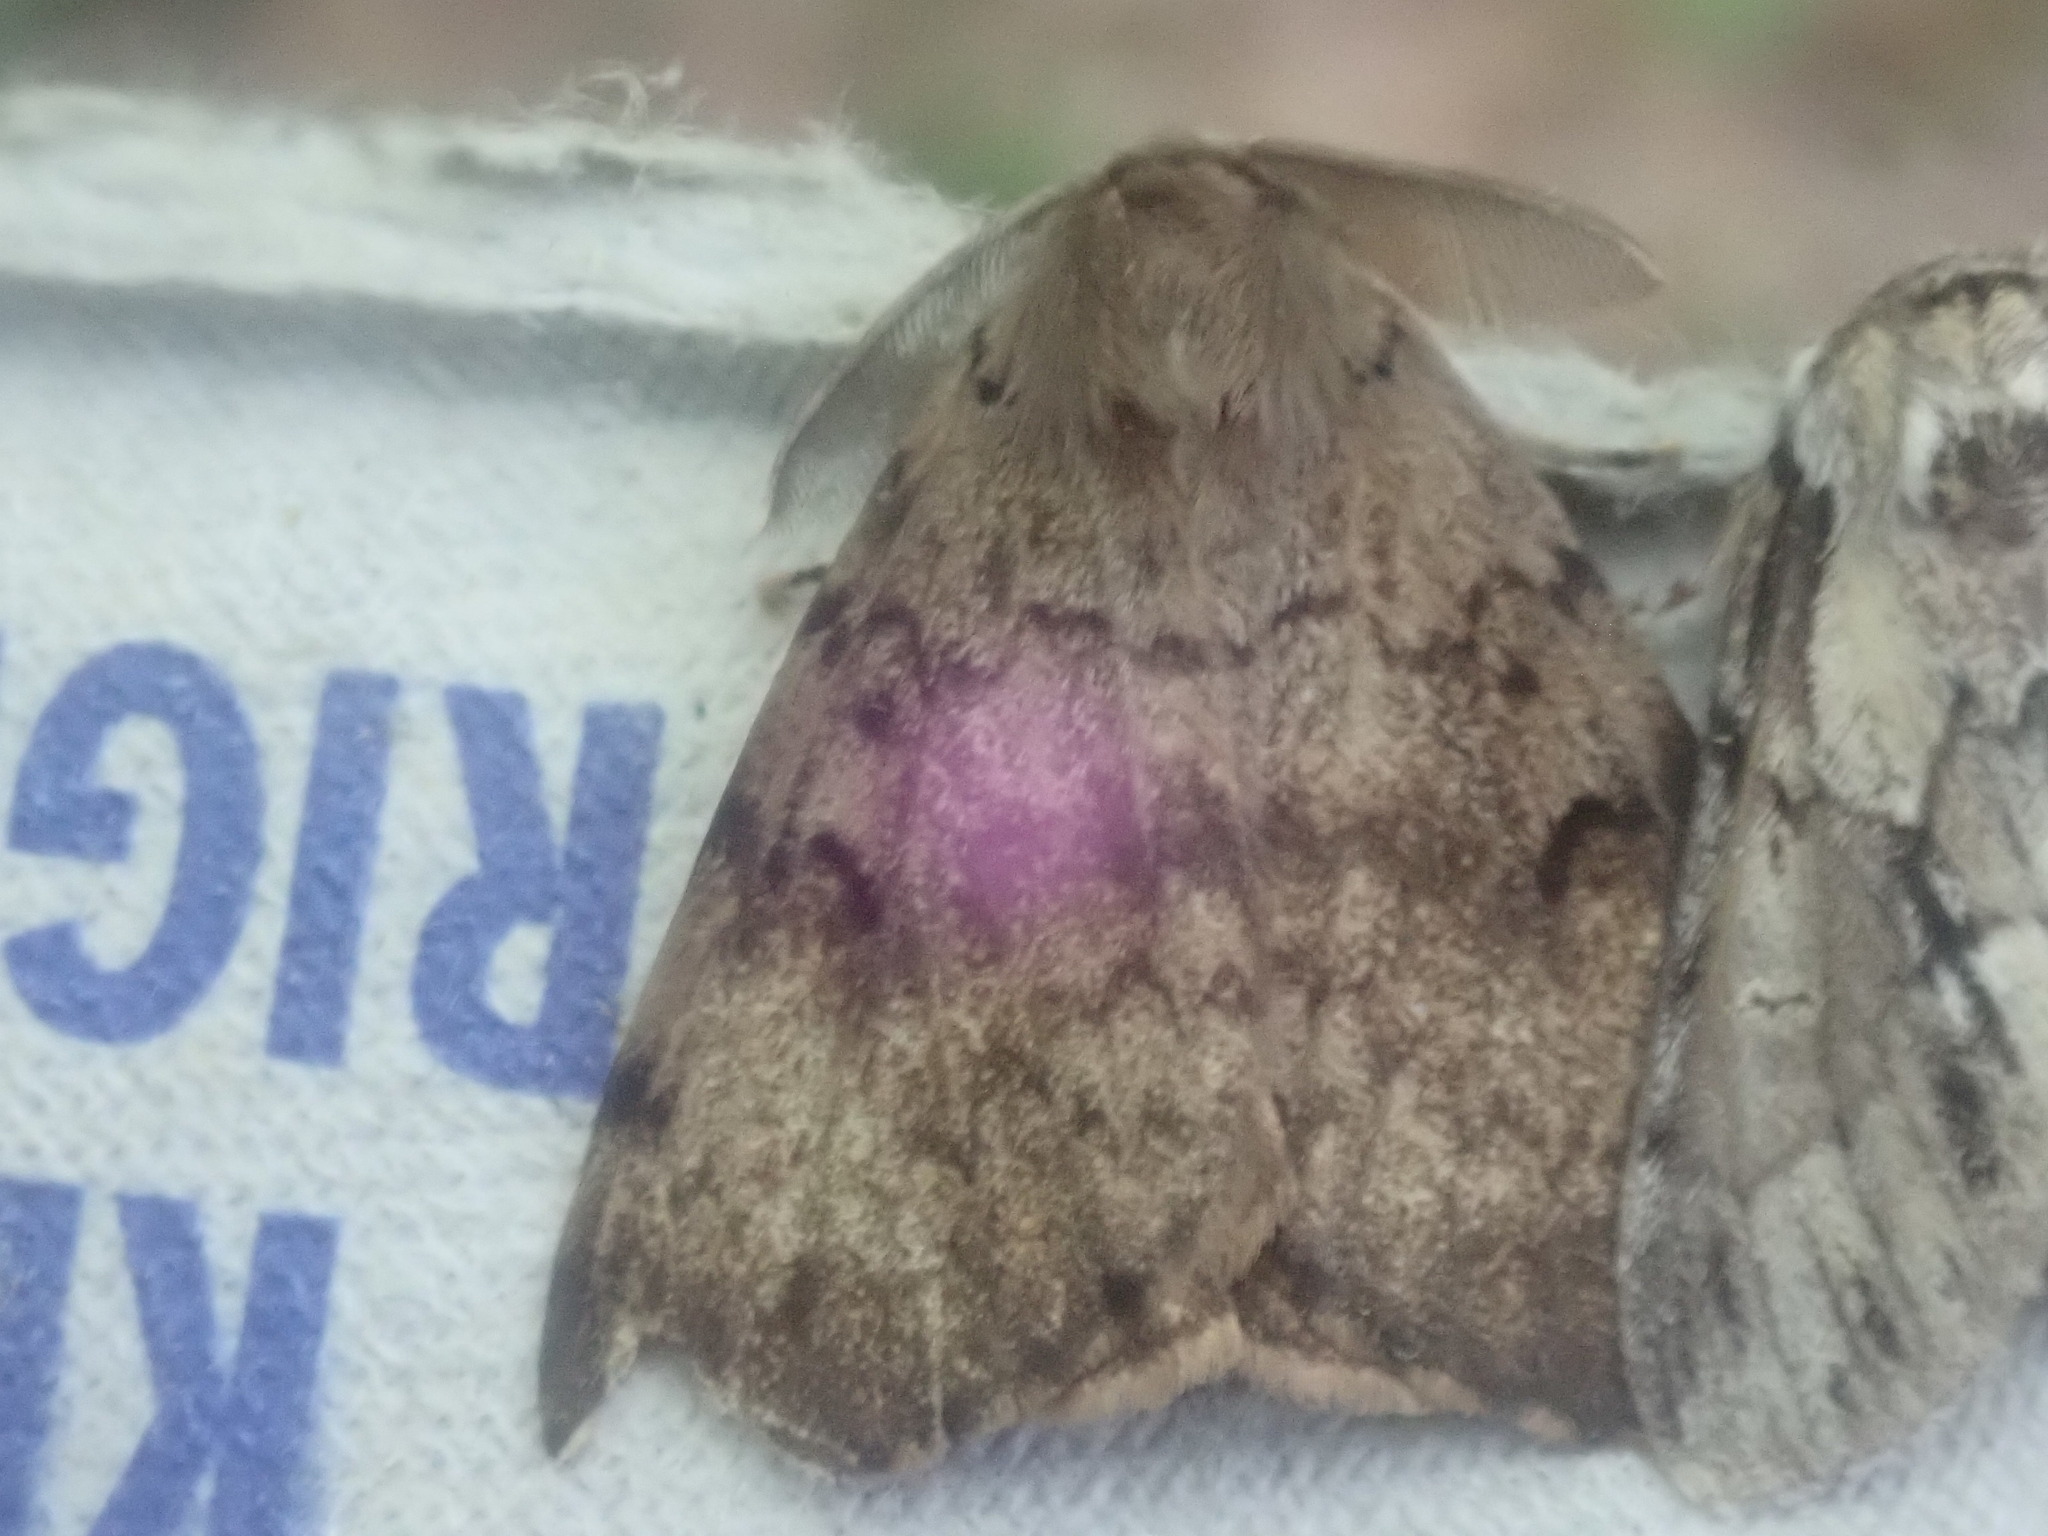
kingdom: Animalia
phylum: Arthropoda
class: Insecta
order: Lepidoptera
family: Erebidae
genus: Lymantria
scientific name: Lymantria dispar
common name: Gypsy moth
